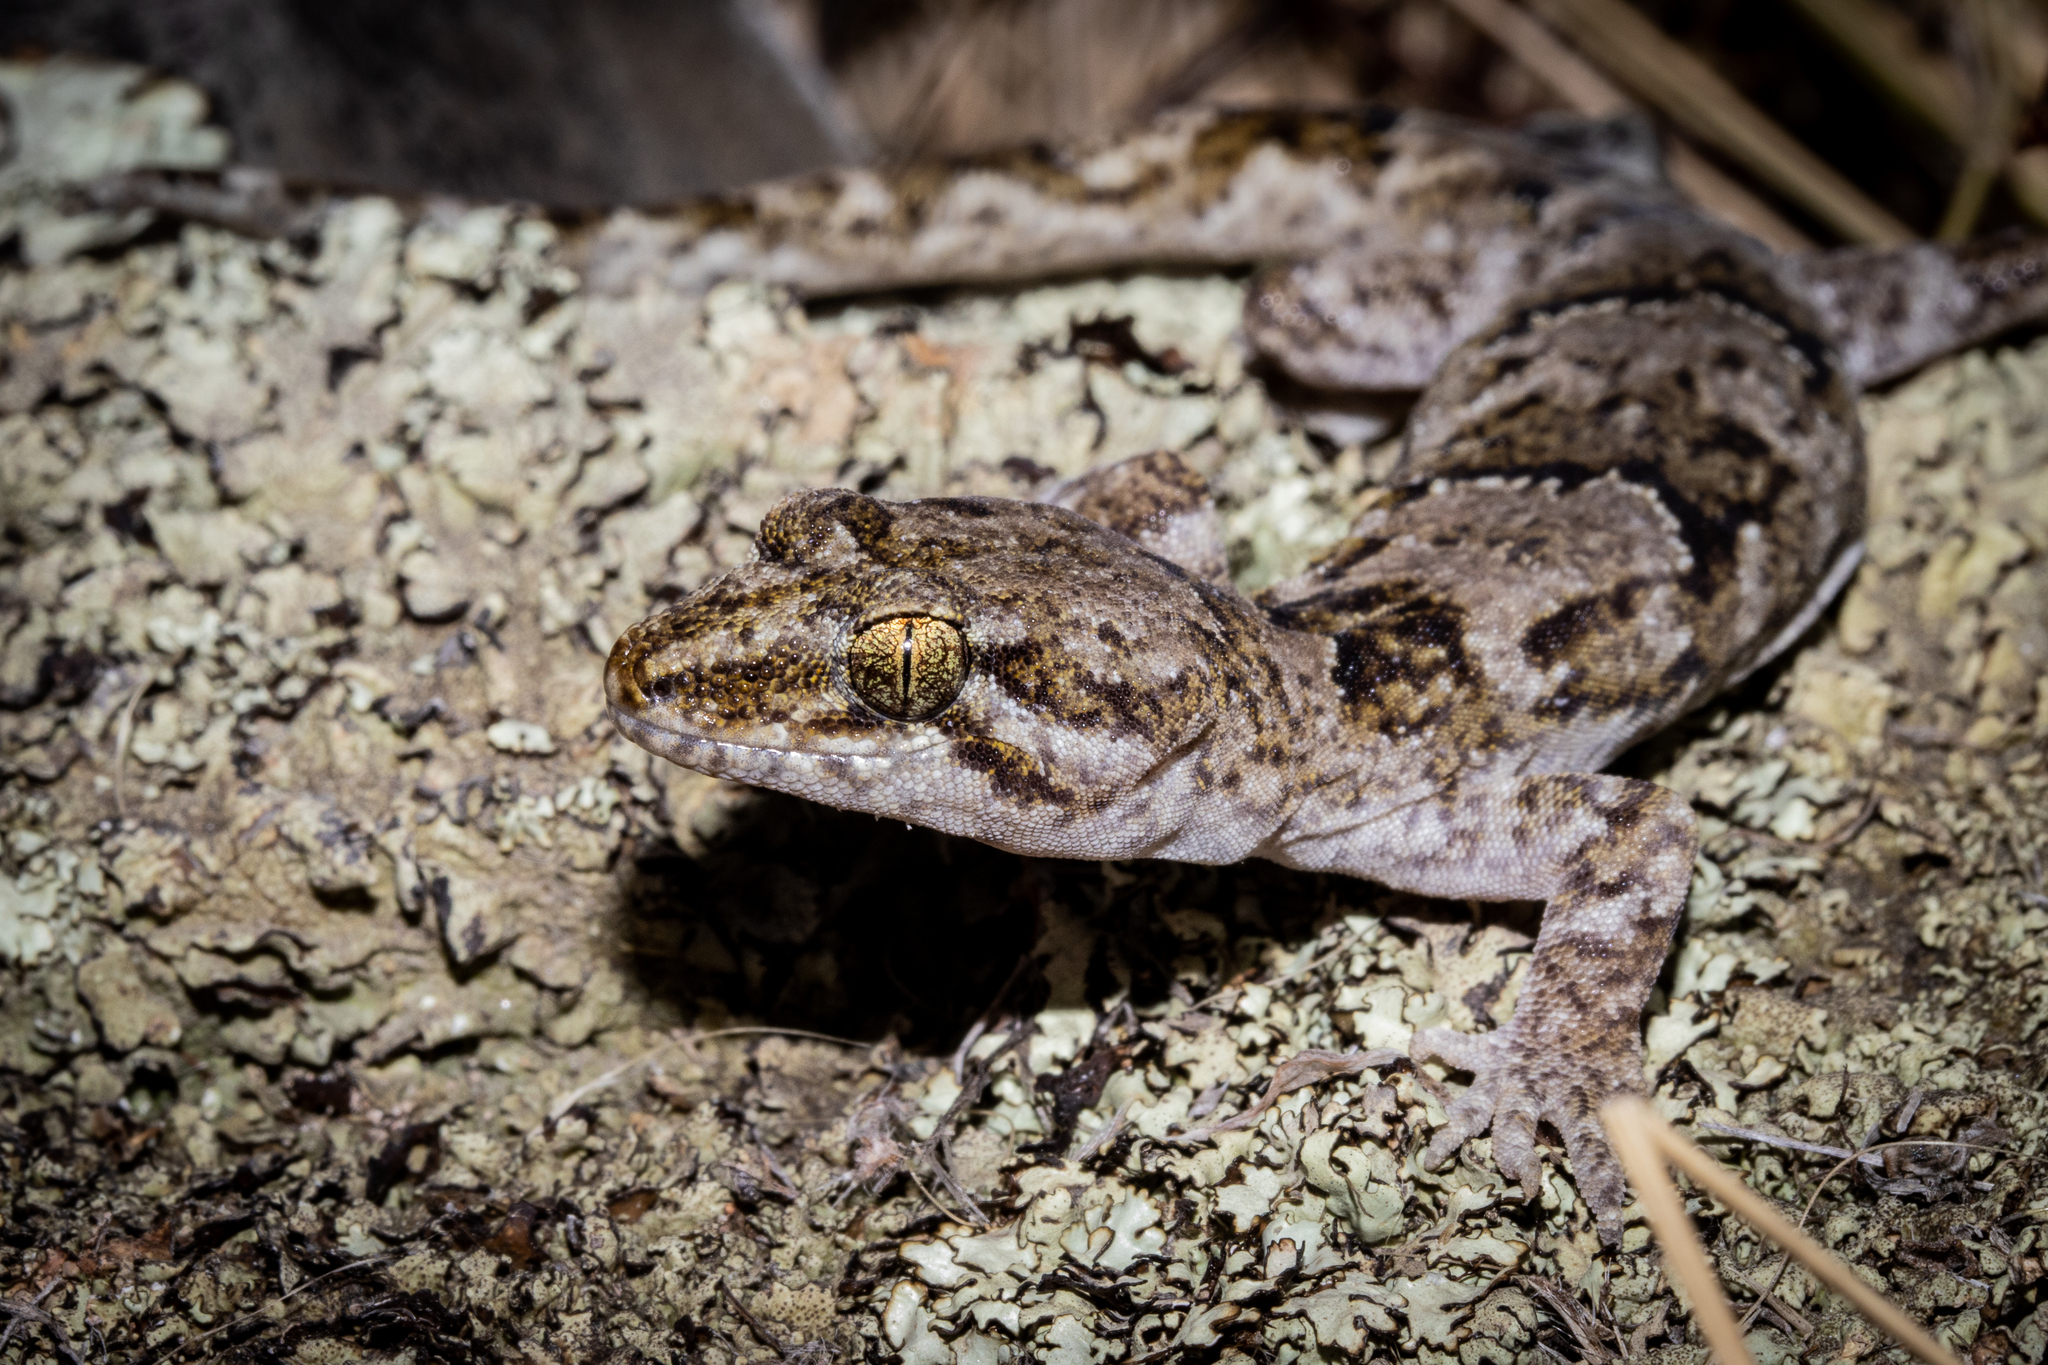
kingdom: Animalia
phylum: Chordata
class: Squamata
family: Diplodactylidae
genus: Woodworthia
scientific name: Woodworthia
